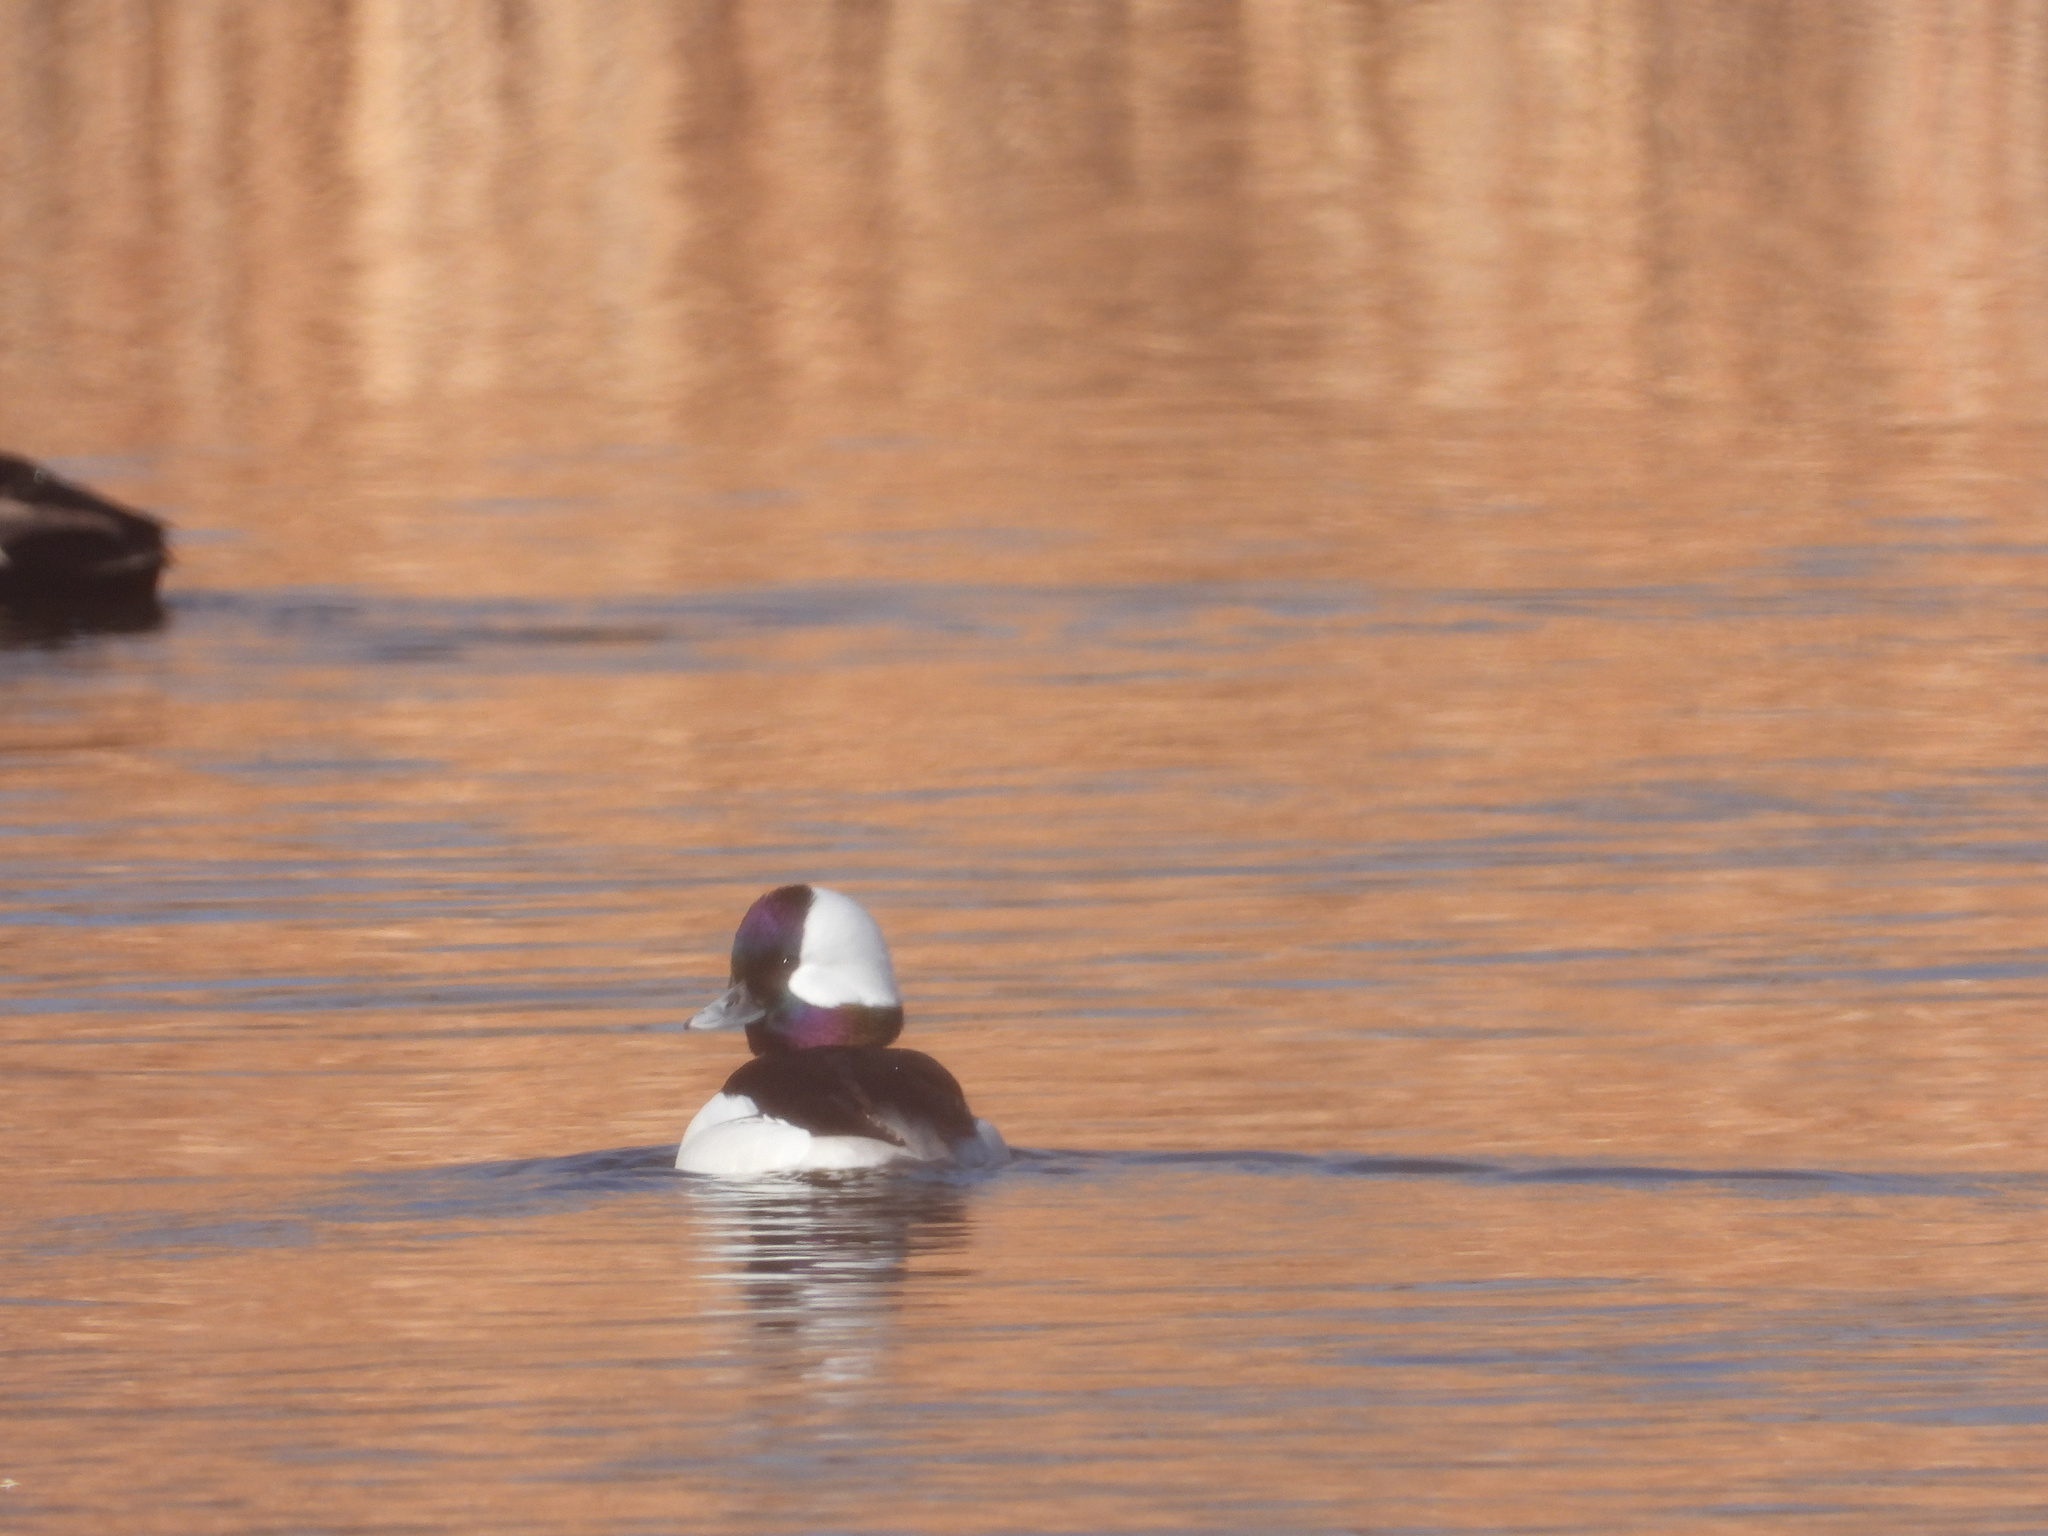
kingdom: Animalia
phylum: Chordata
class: Aves
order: Anseriformes
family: Anatidae
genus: Bucephala
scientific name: Bucephala albeola
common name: Bufflehead
